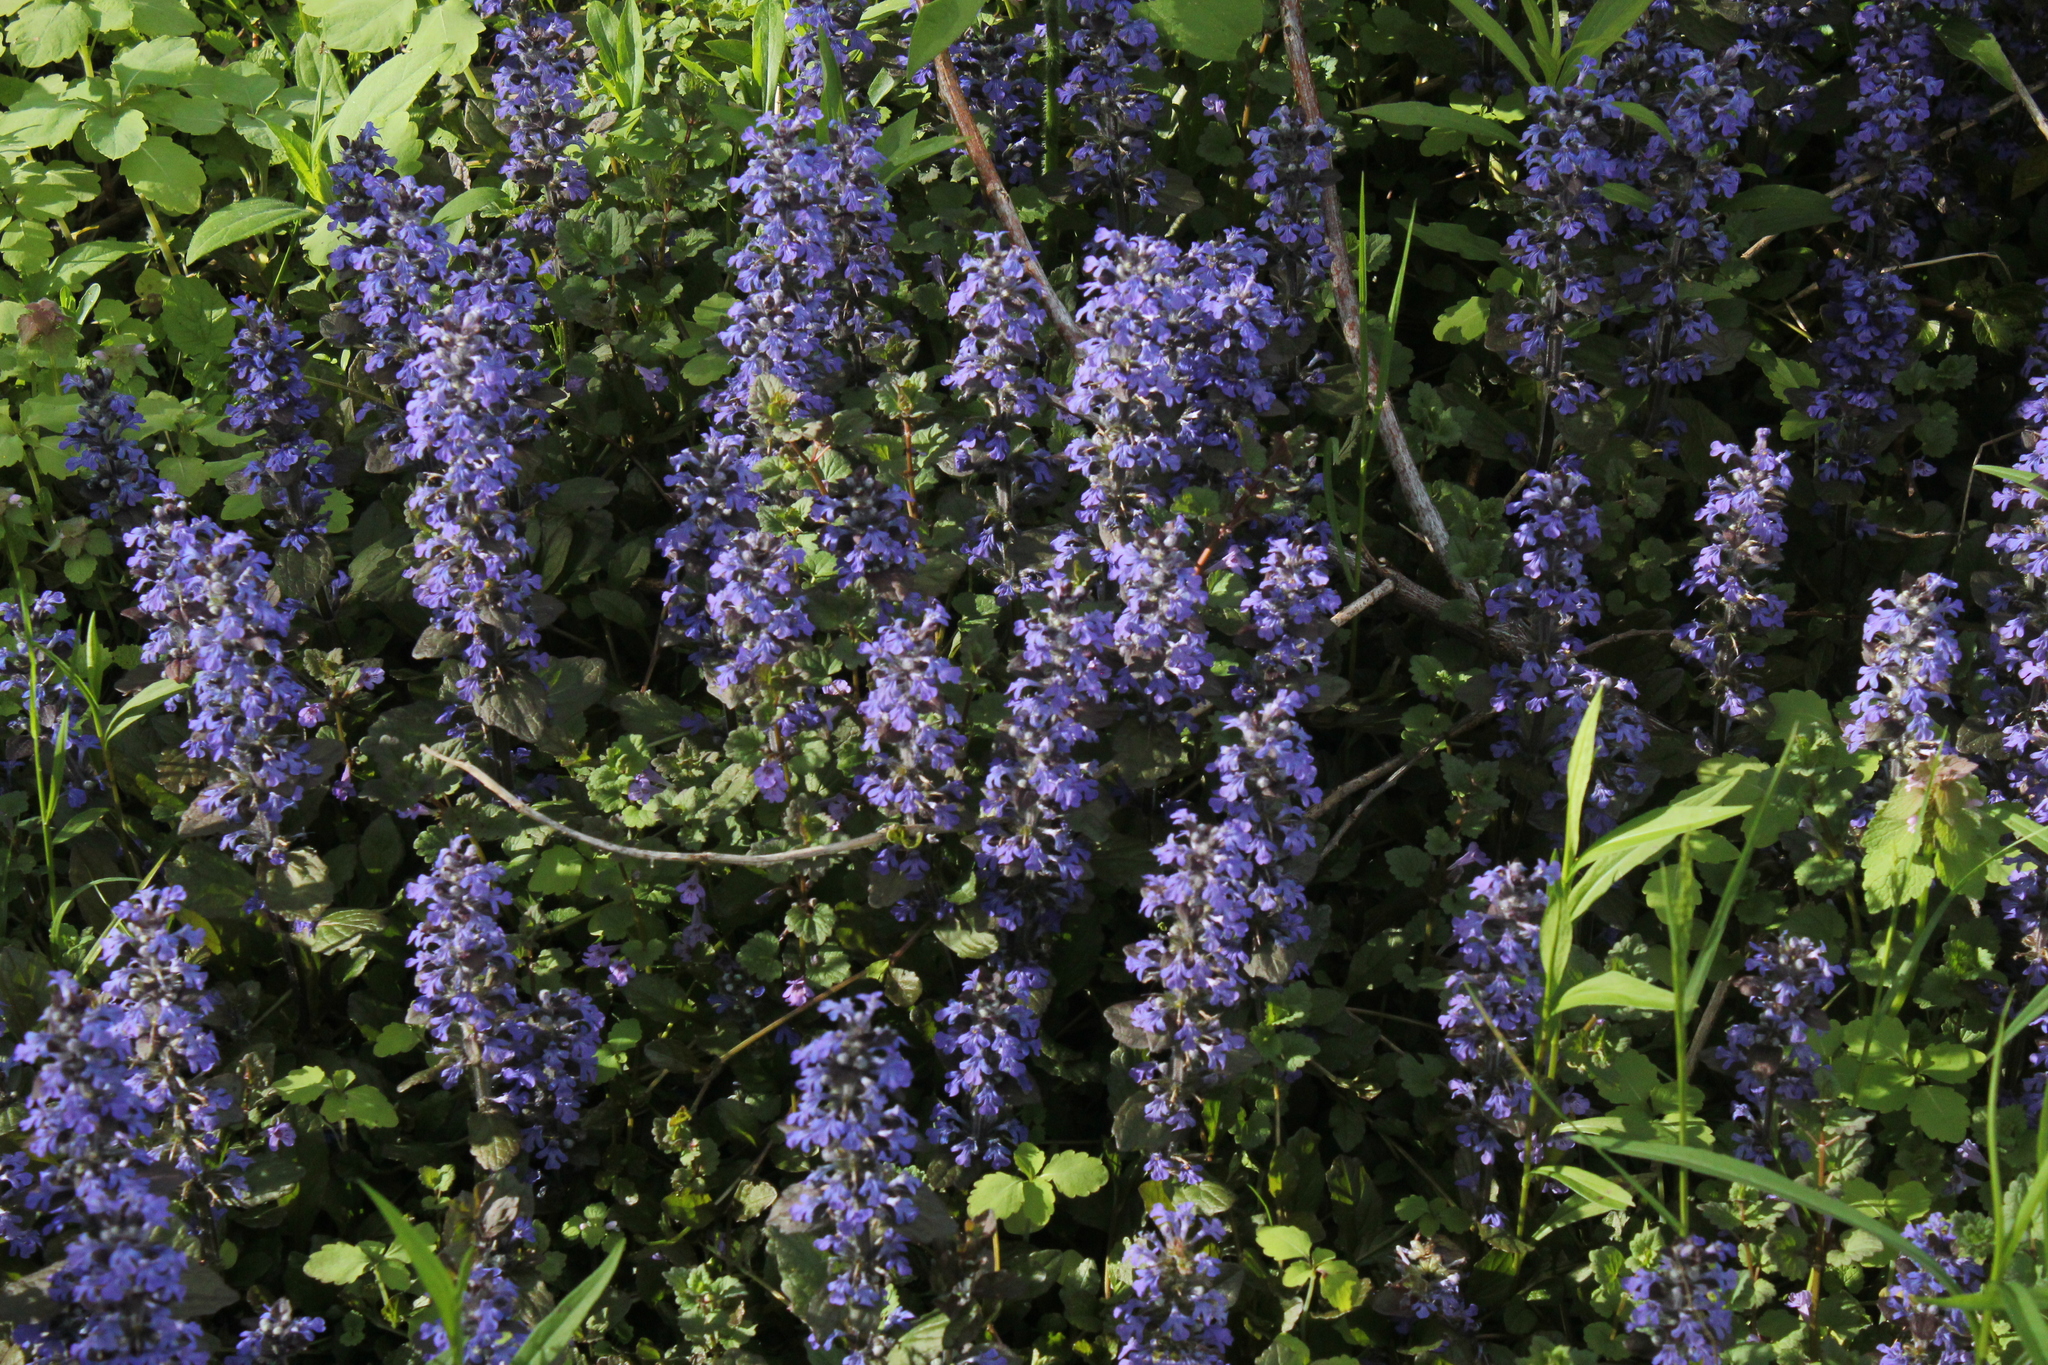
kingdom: Plantae
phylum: Tracheophyta
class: Magnoliopsida
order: Lamiales
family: Lamiaceae
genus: Ajuga
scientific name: Ajuga reptans
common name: Bugle
